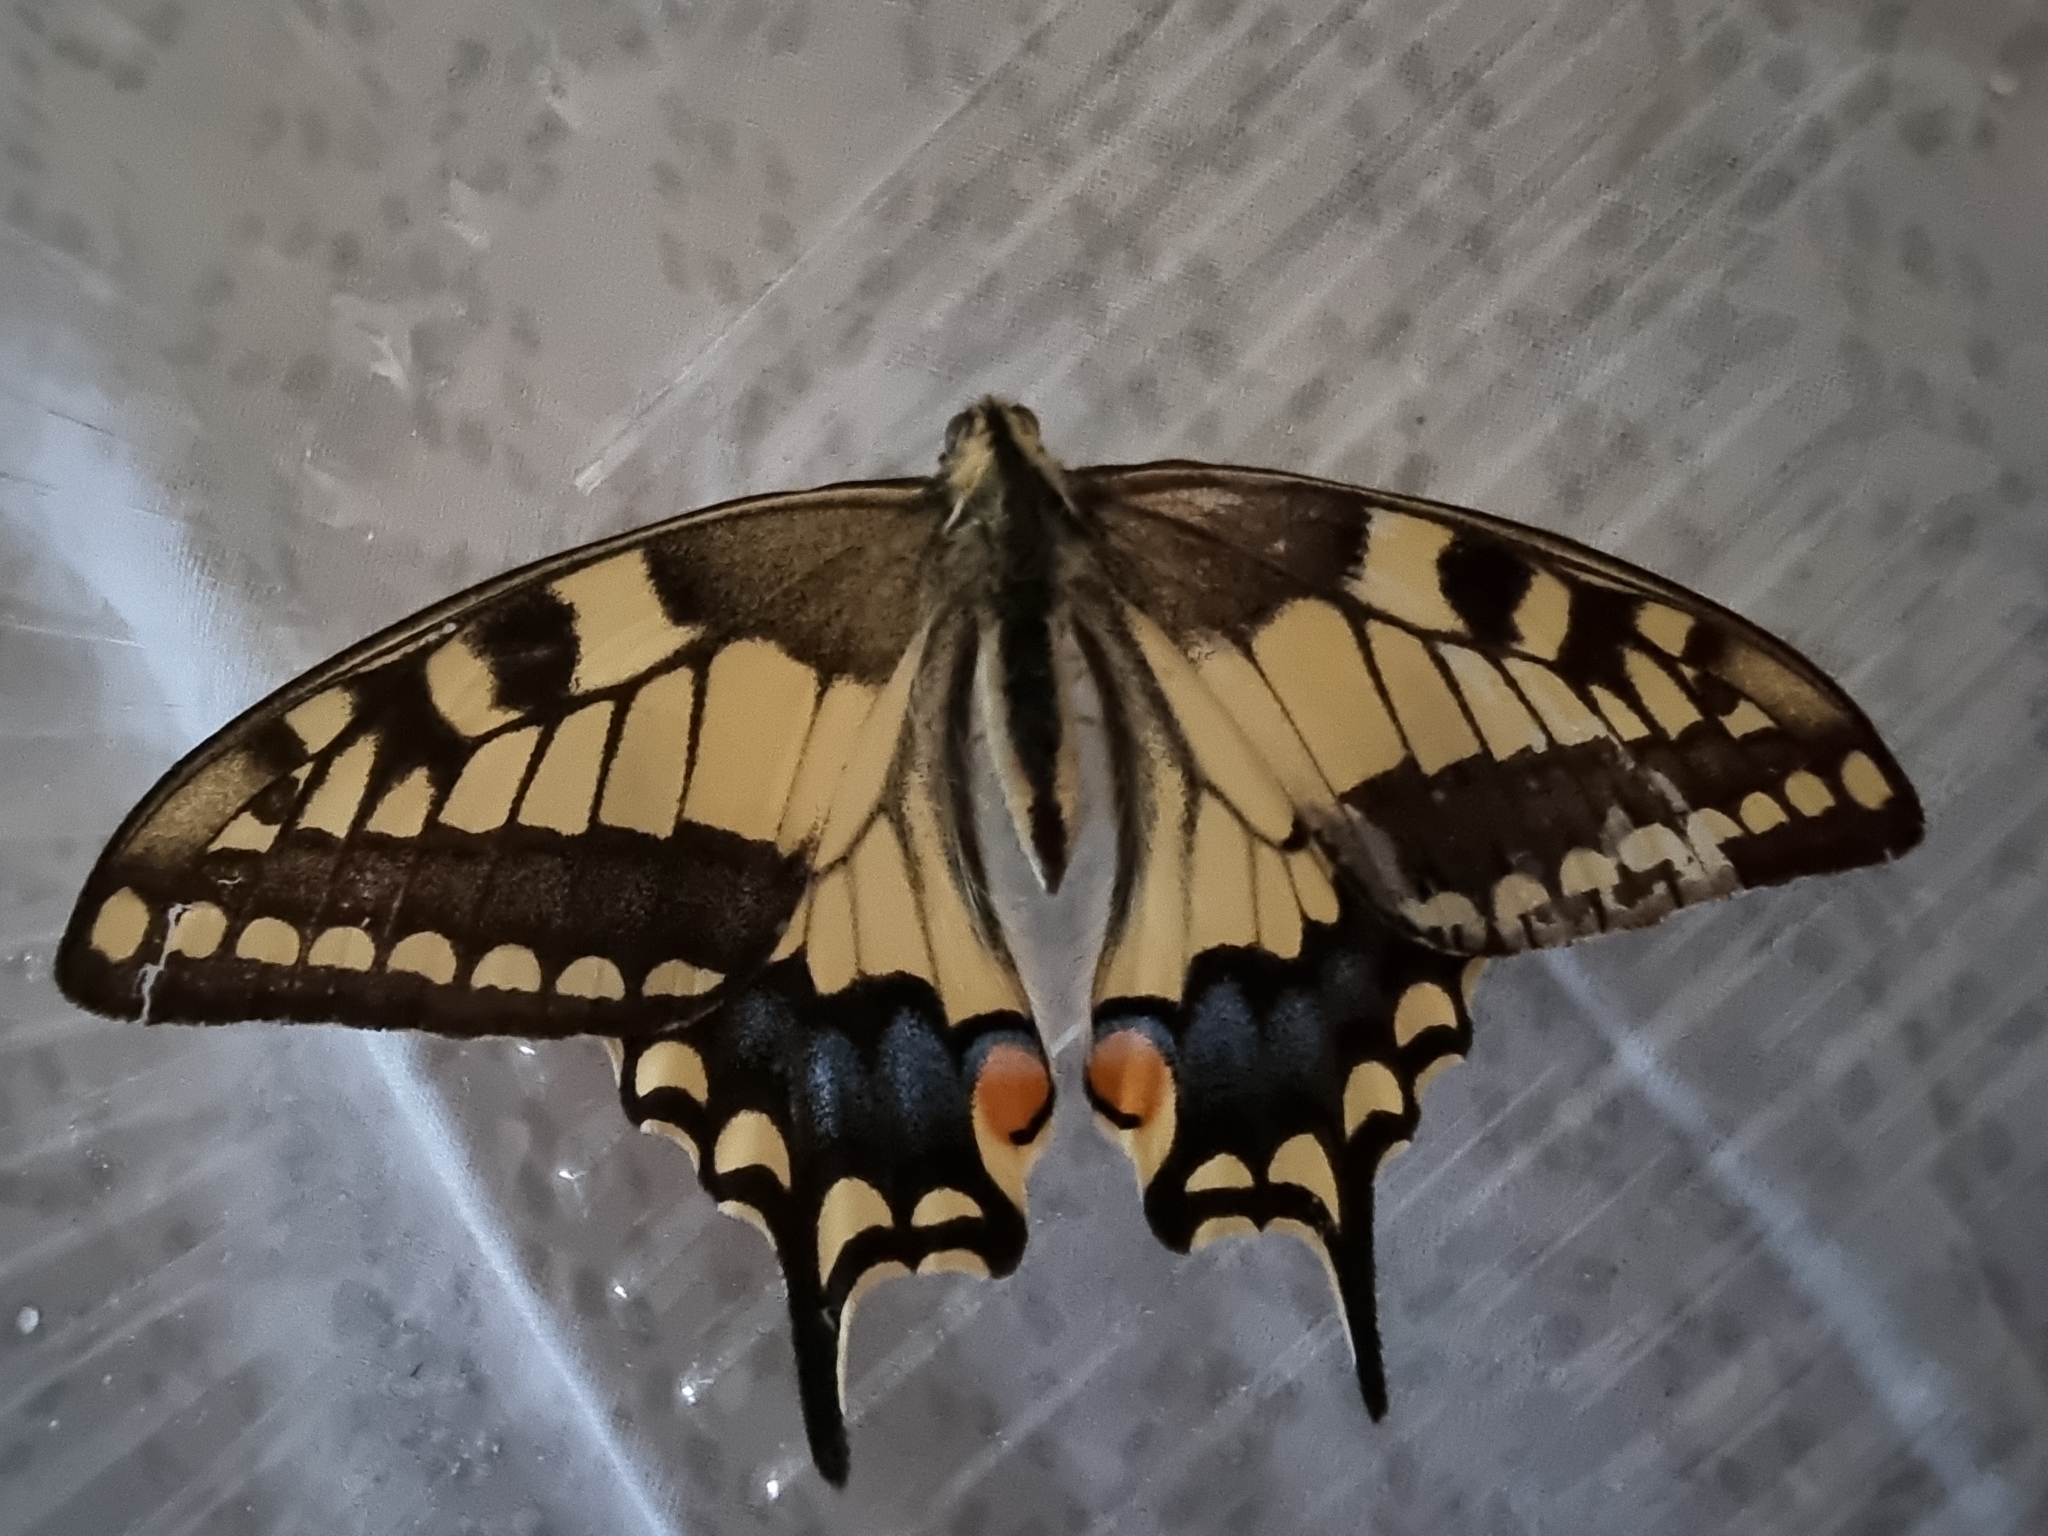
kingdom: Animalia
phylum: Arthropoda
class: Insecta
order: Lepidoptera
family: Papilionidae
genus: Papilio
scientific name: Papilio machaon
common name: Swallowtail
